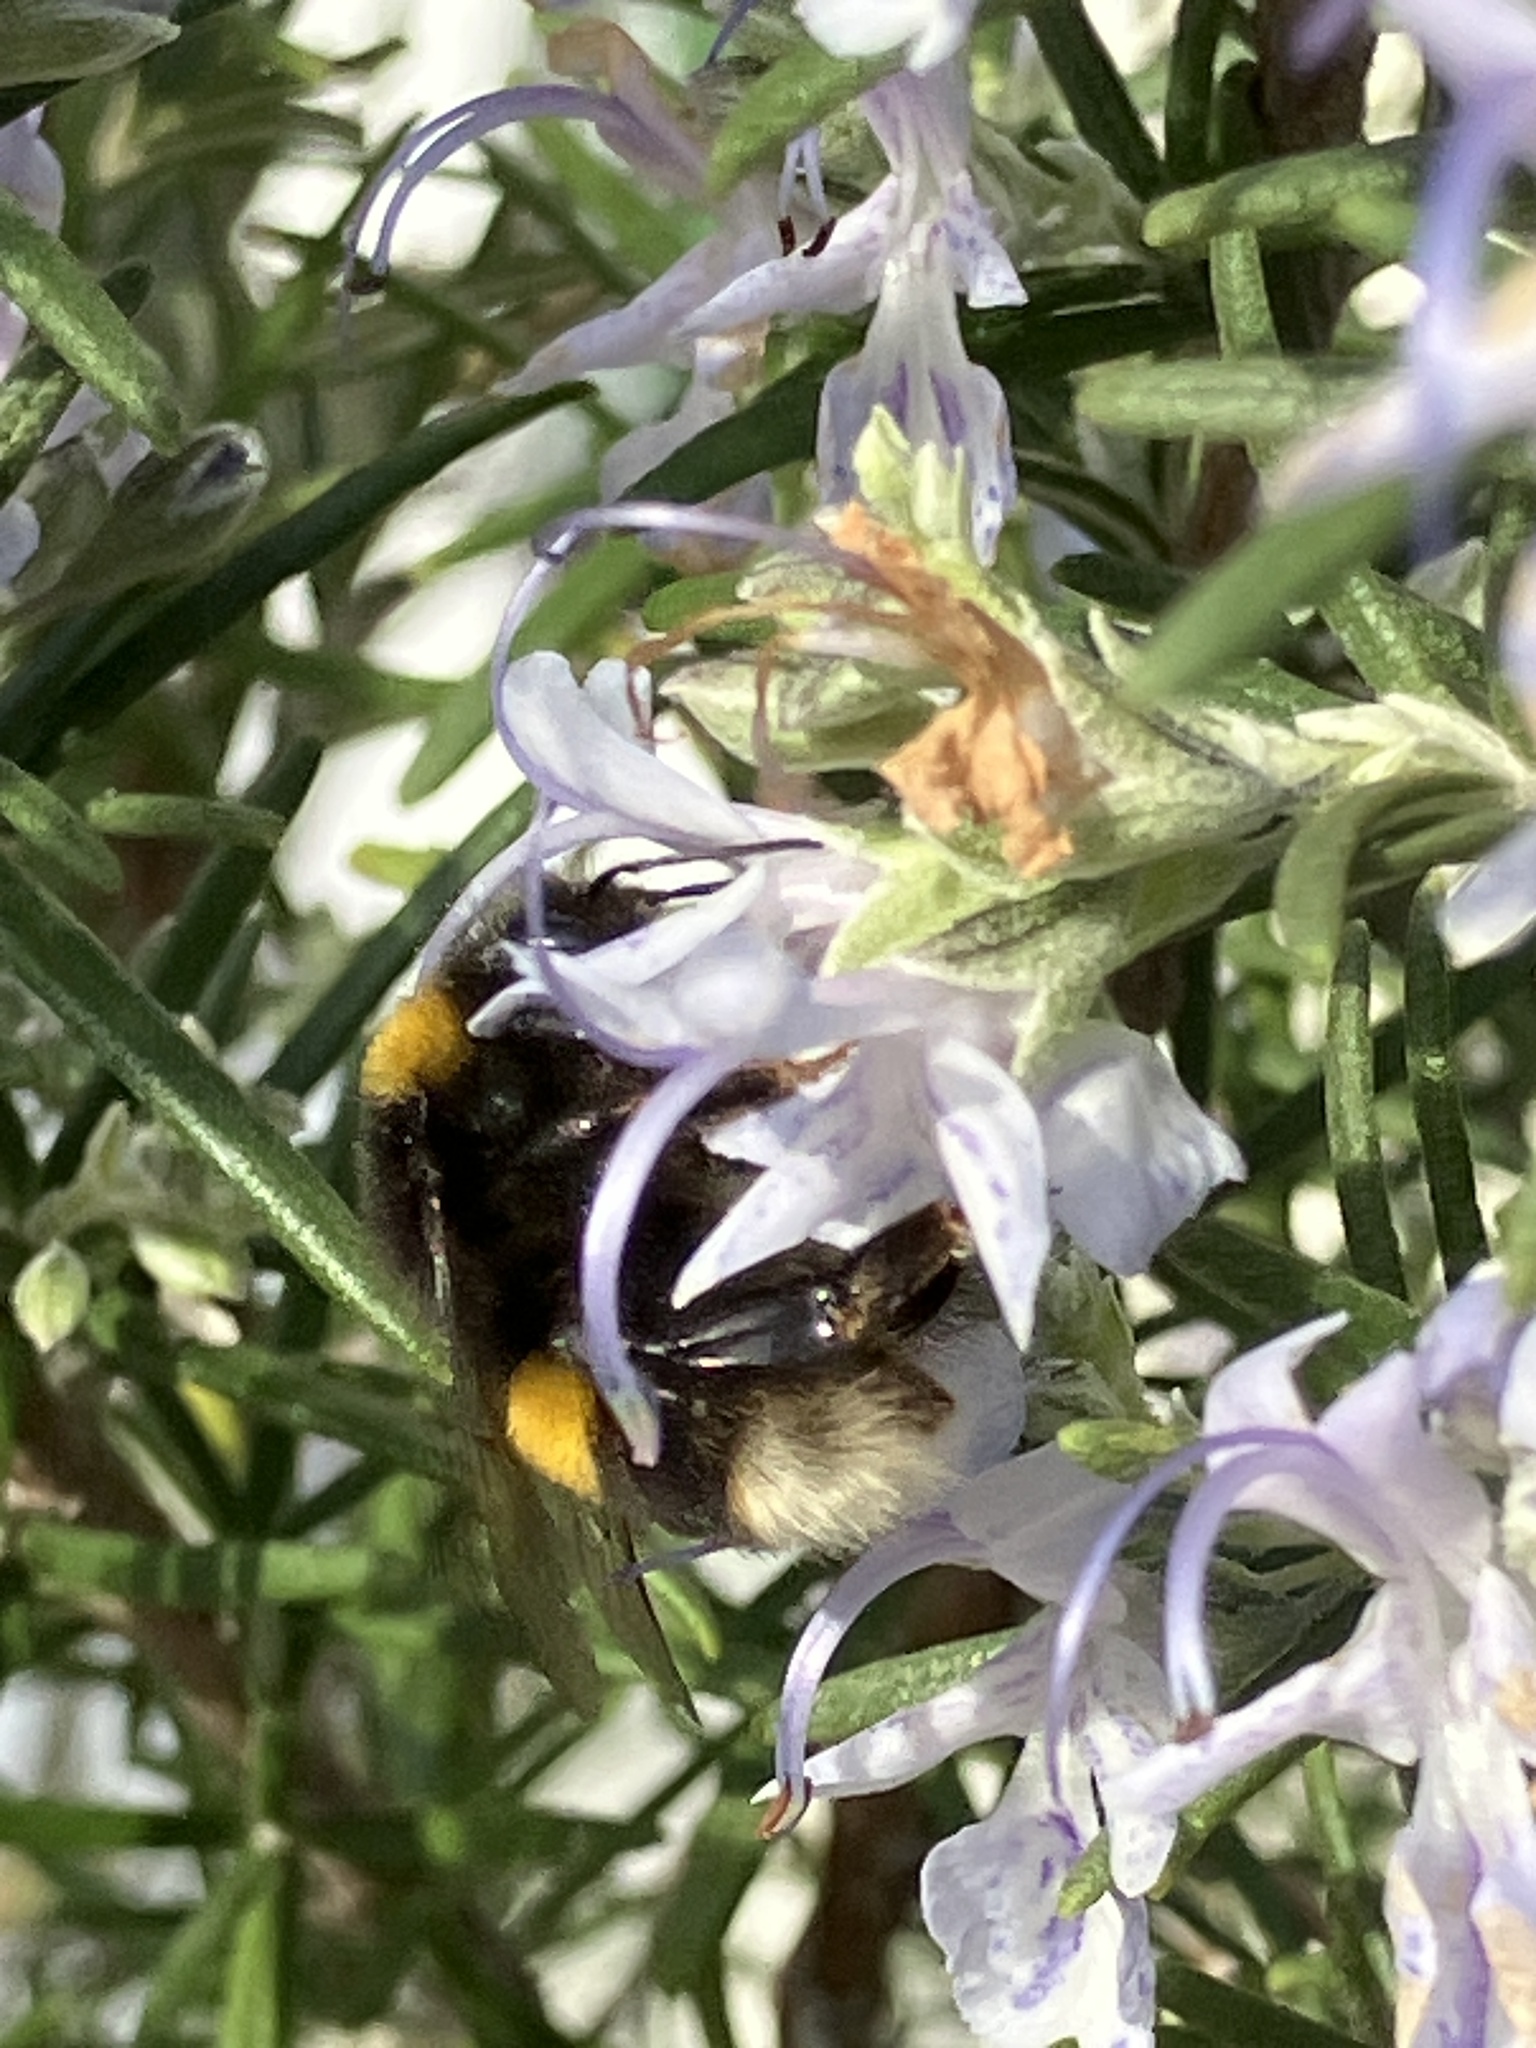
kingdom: Animalia
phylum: Arthropoda
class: Insecta
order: Hymenoptera
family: Apidae
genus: Bombus
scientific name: Bombus terrestris
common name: Buff-tailed bumblebee
